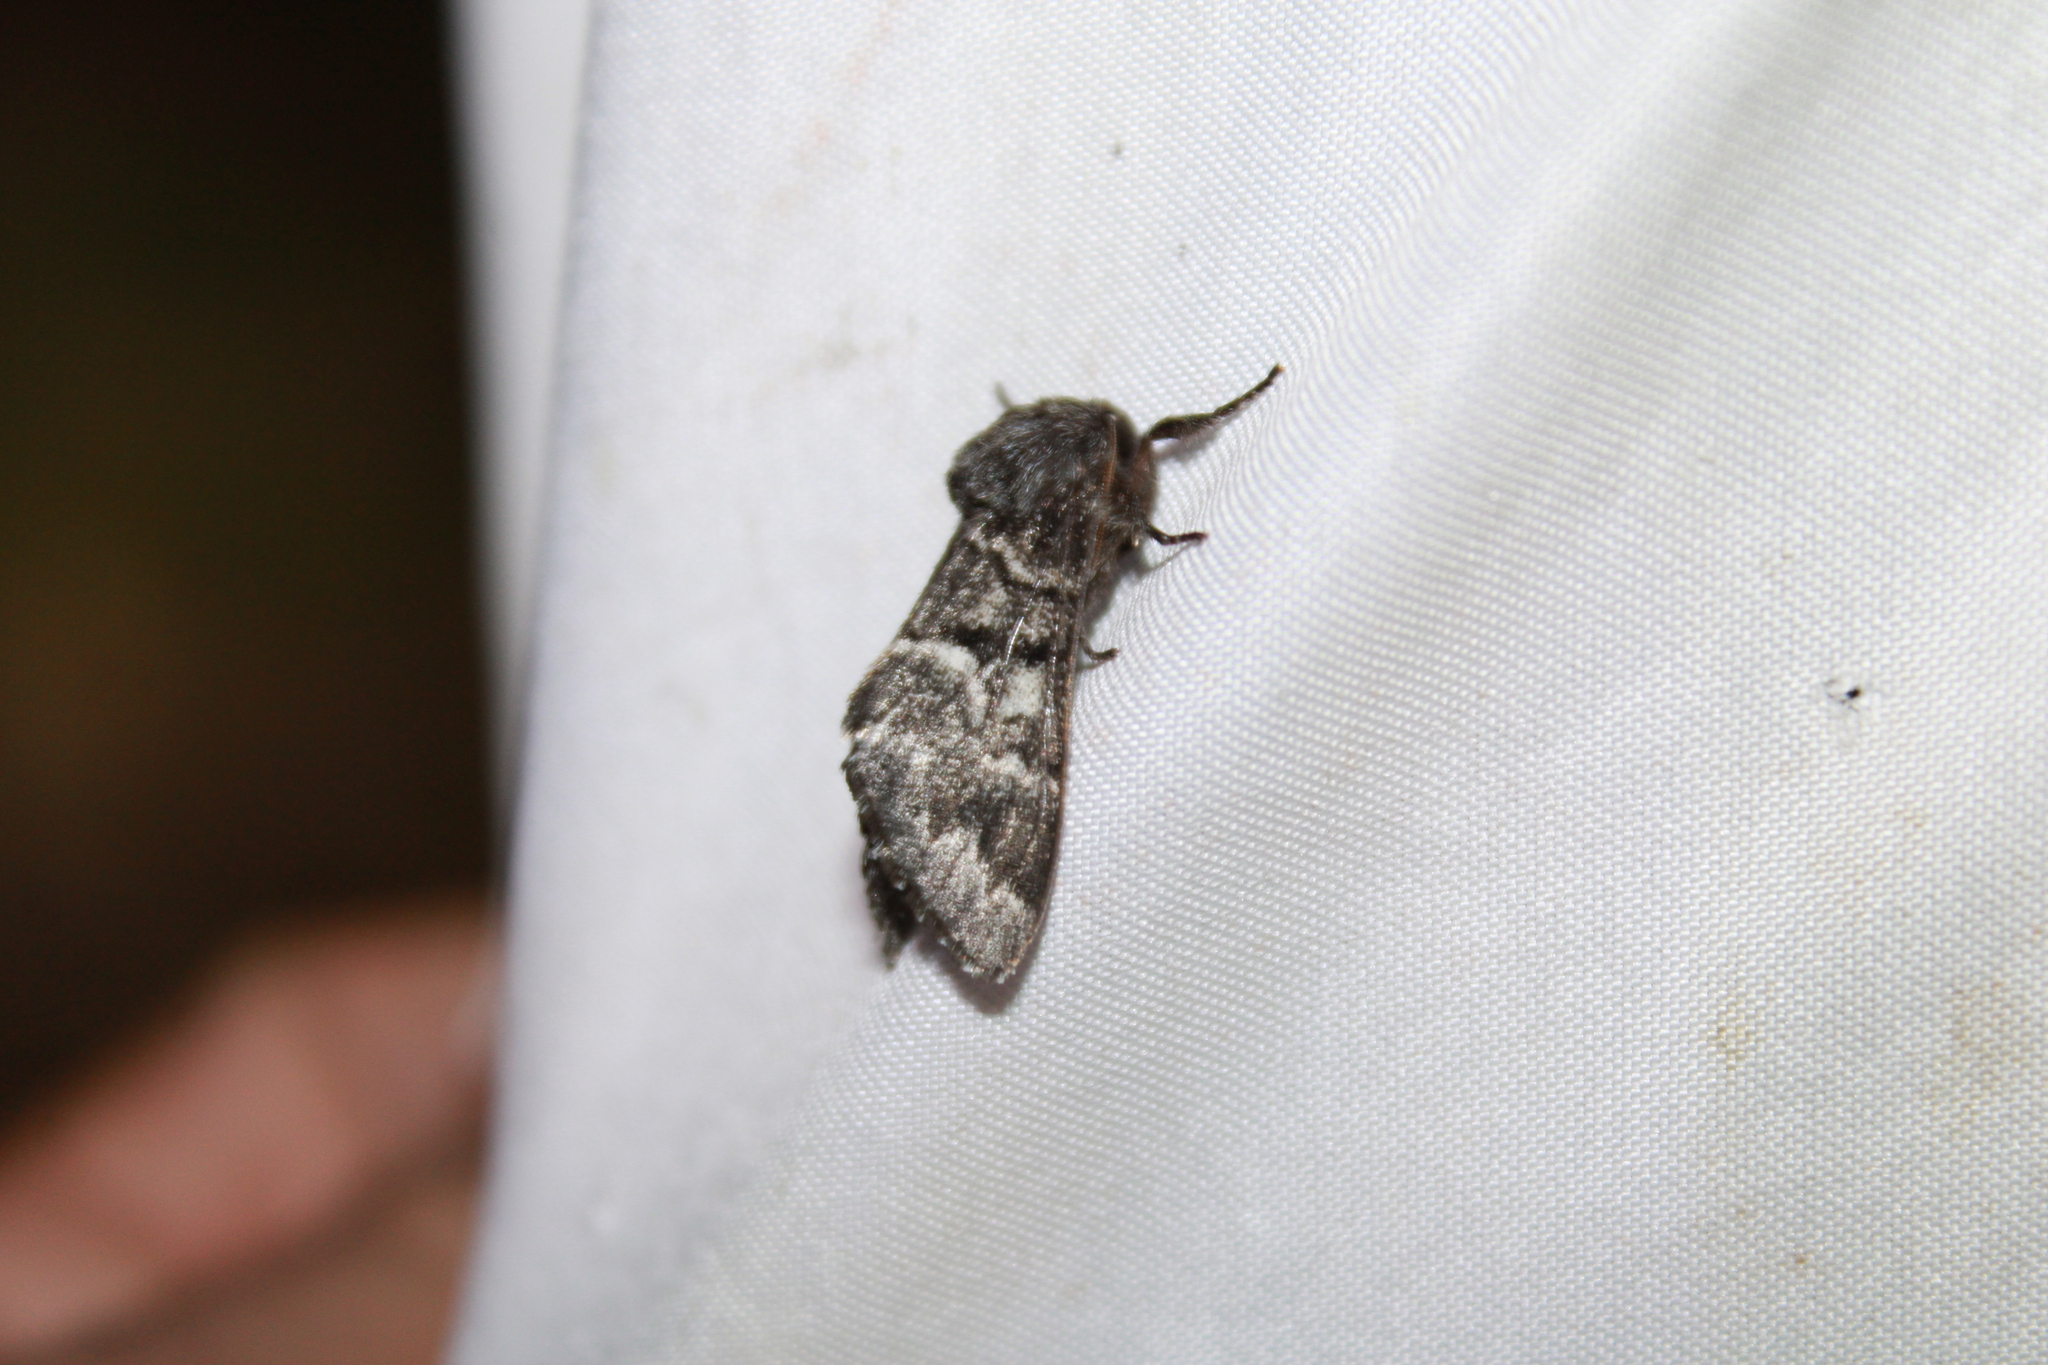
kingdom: Animalia
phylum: Arthropoda
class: Insecta
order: Lepidoptera
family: Noctuidae
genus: Panthea
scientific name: Panthea furcilla
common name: Eastern panthea moth
